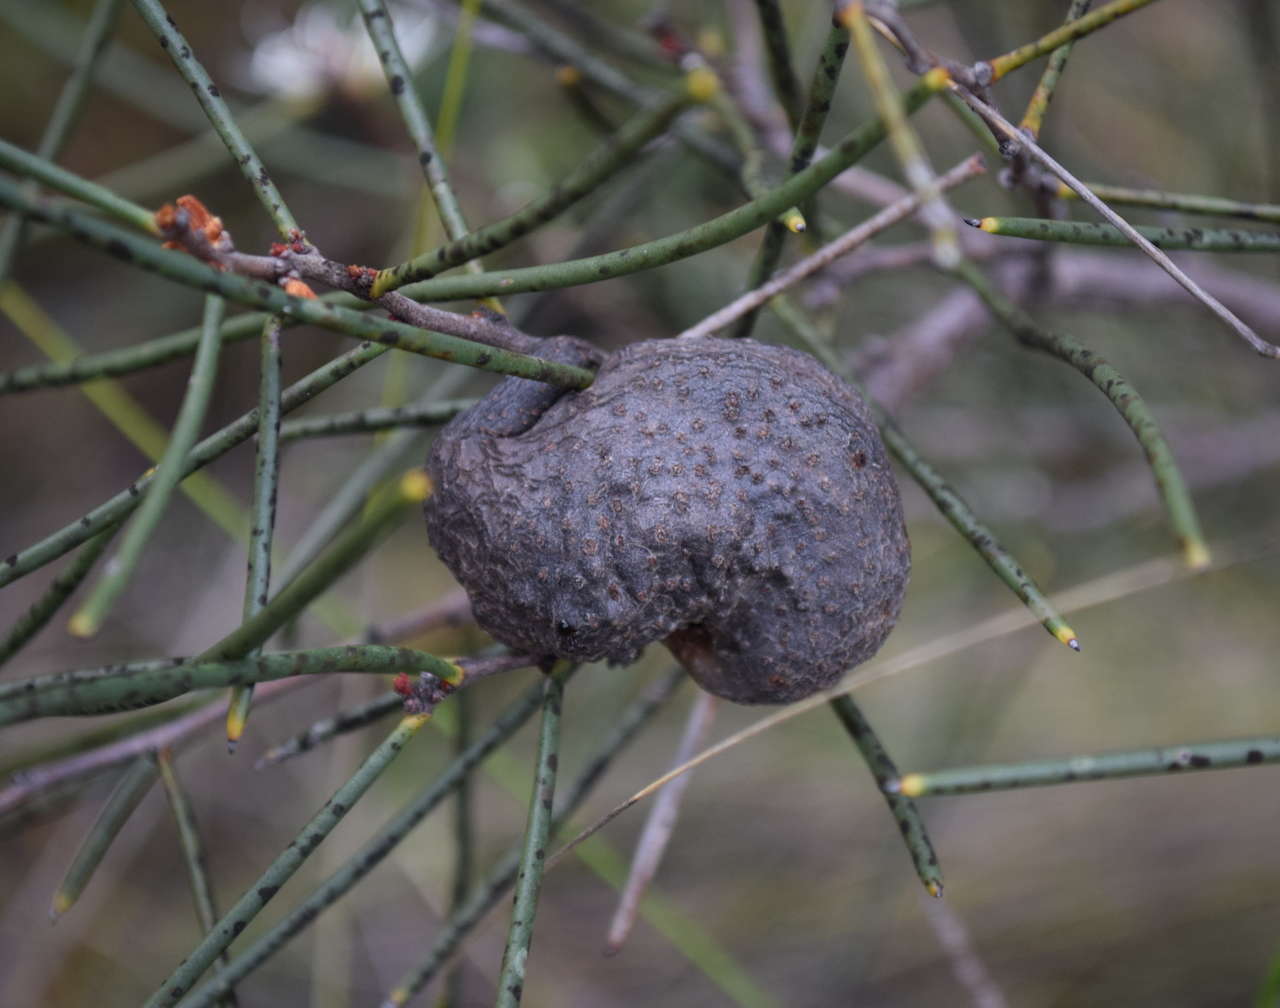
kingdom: Plantae
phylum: Tracheophyta
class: Magnoliopsida
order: Proteales
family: Proteaceae
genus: Hakea
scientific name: Hakea rostrata
